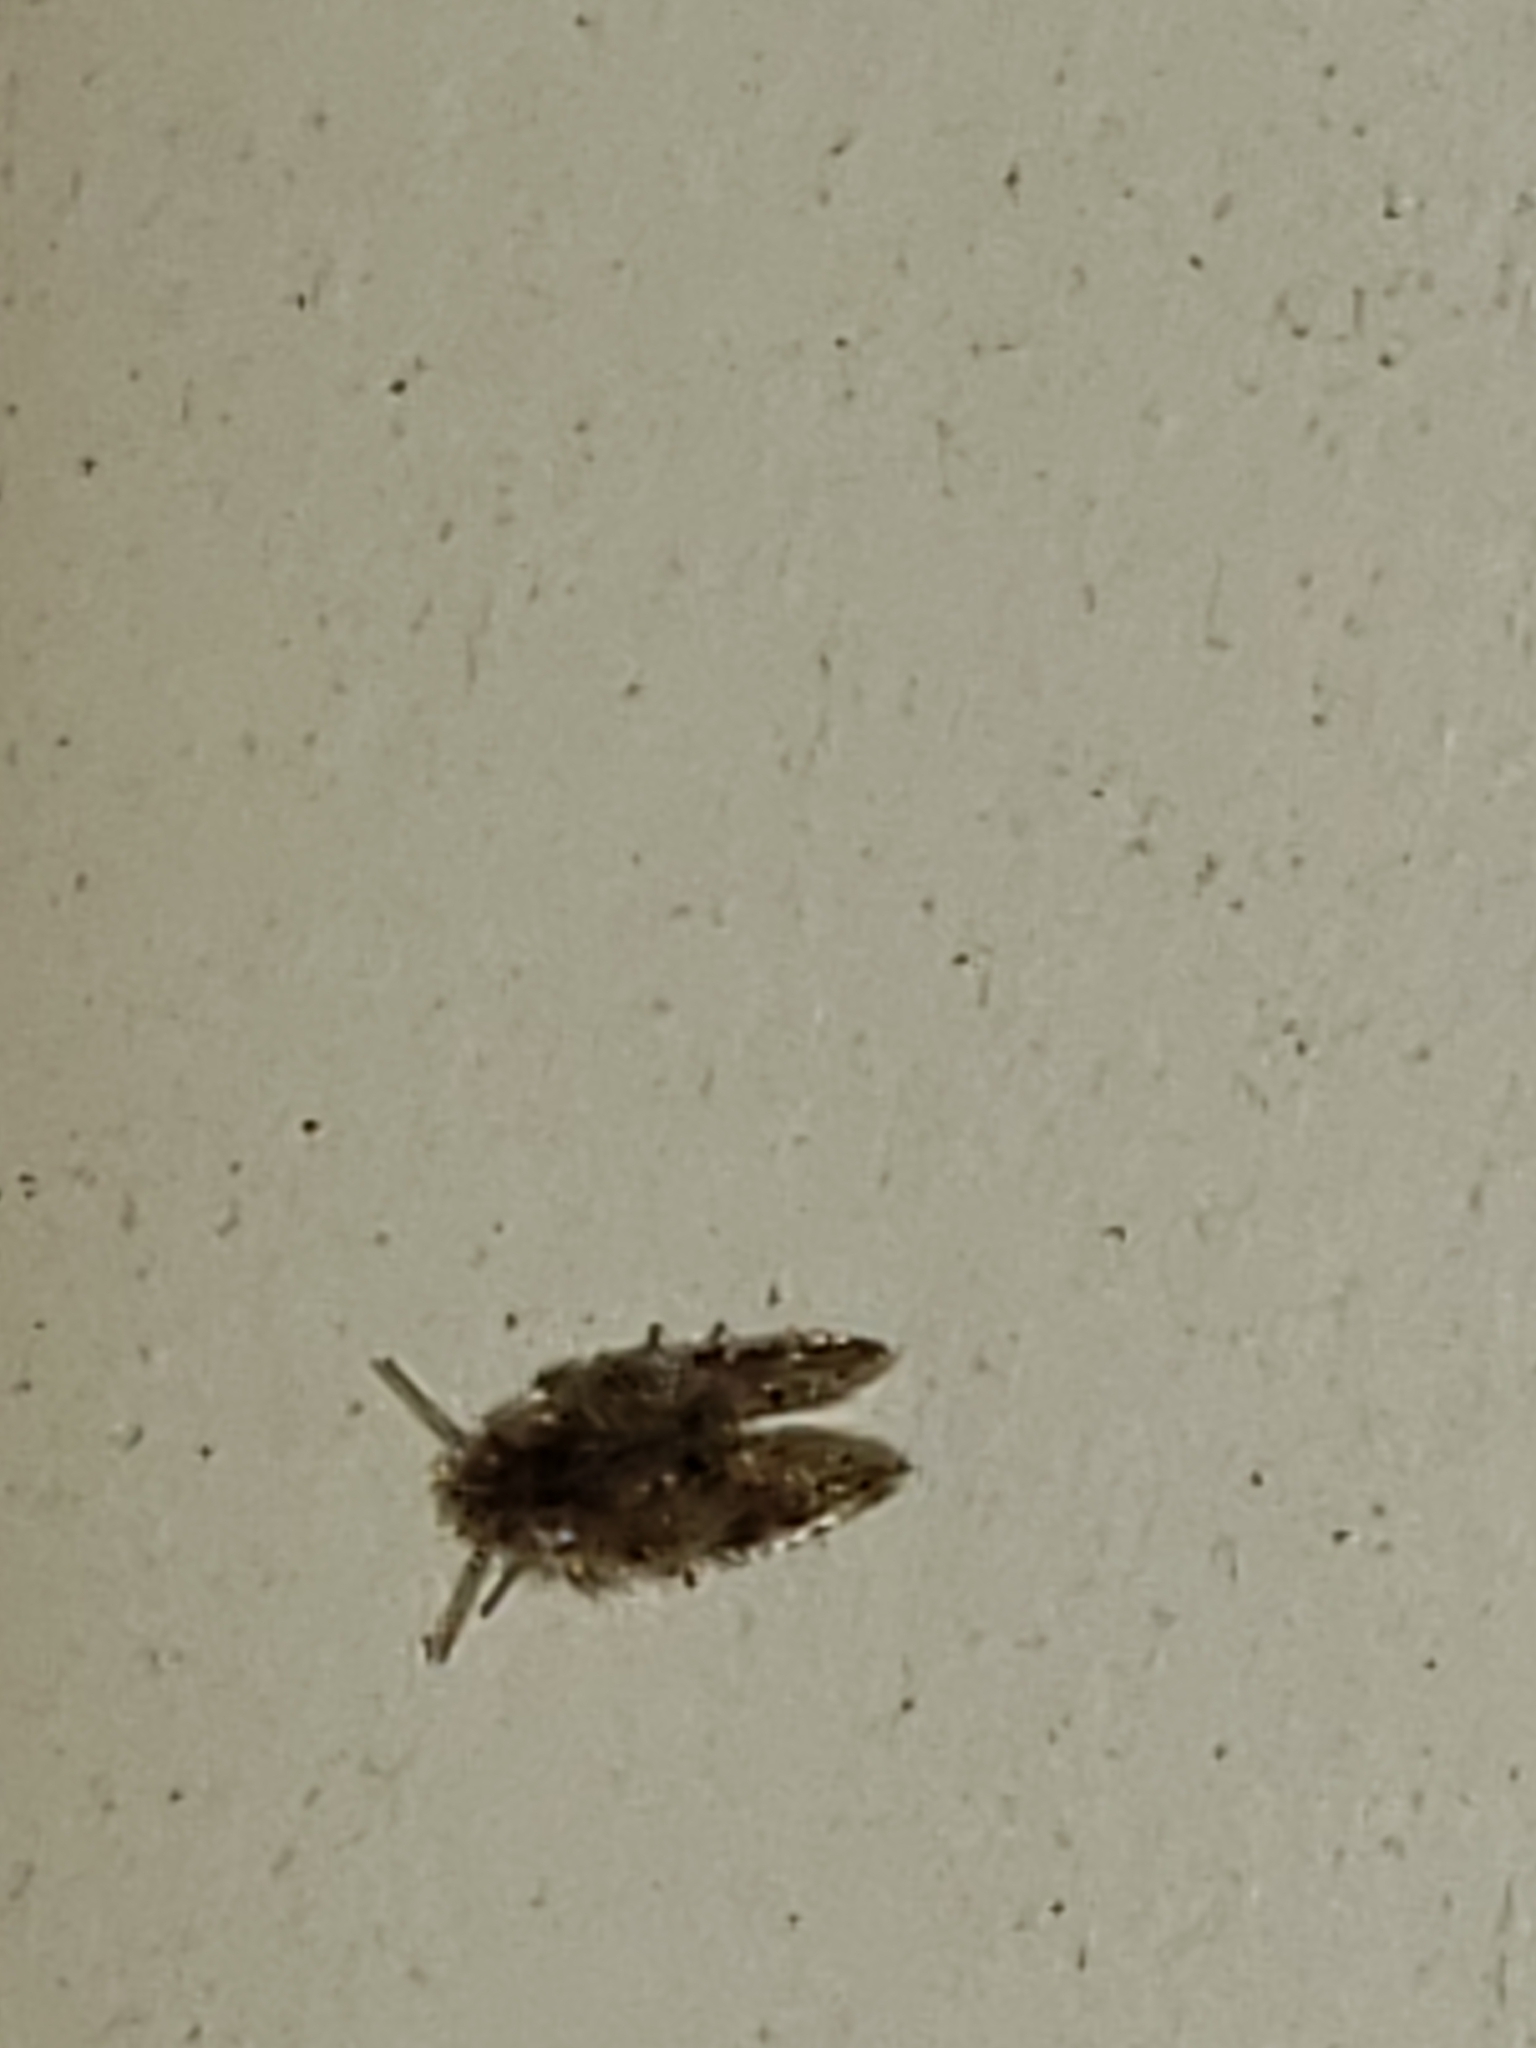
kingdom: Animalia
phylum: Arthropoda
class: Insecta
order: Diptera
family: Psychodidae
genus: Psychoda
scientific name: Psychoda alternata
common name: Moth fly
